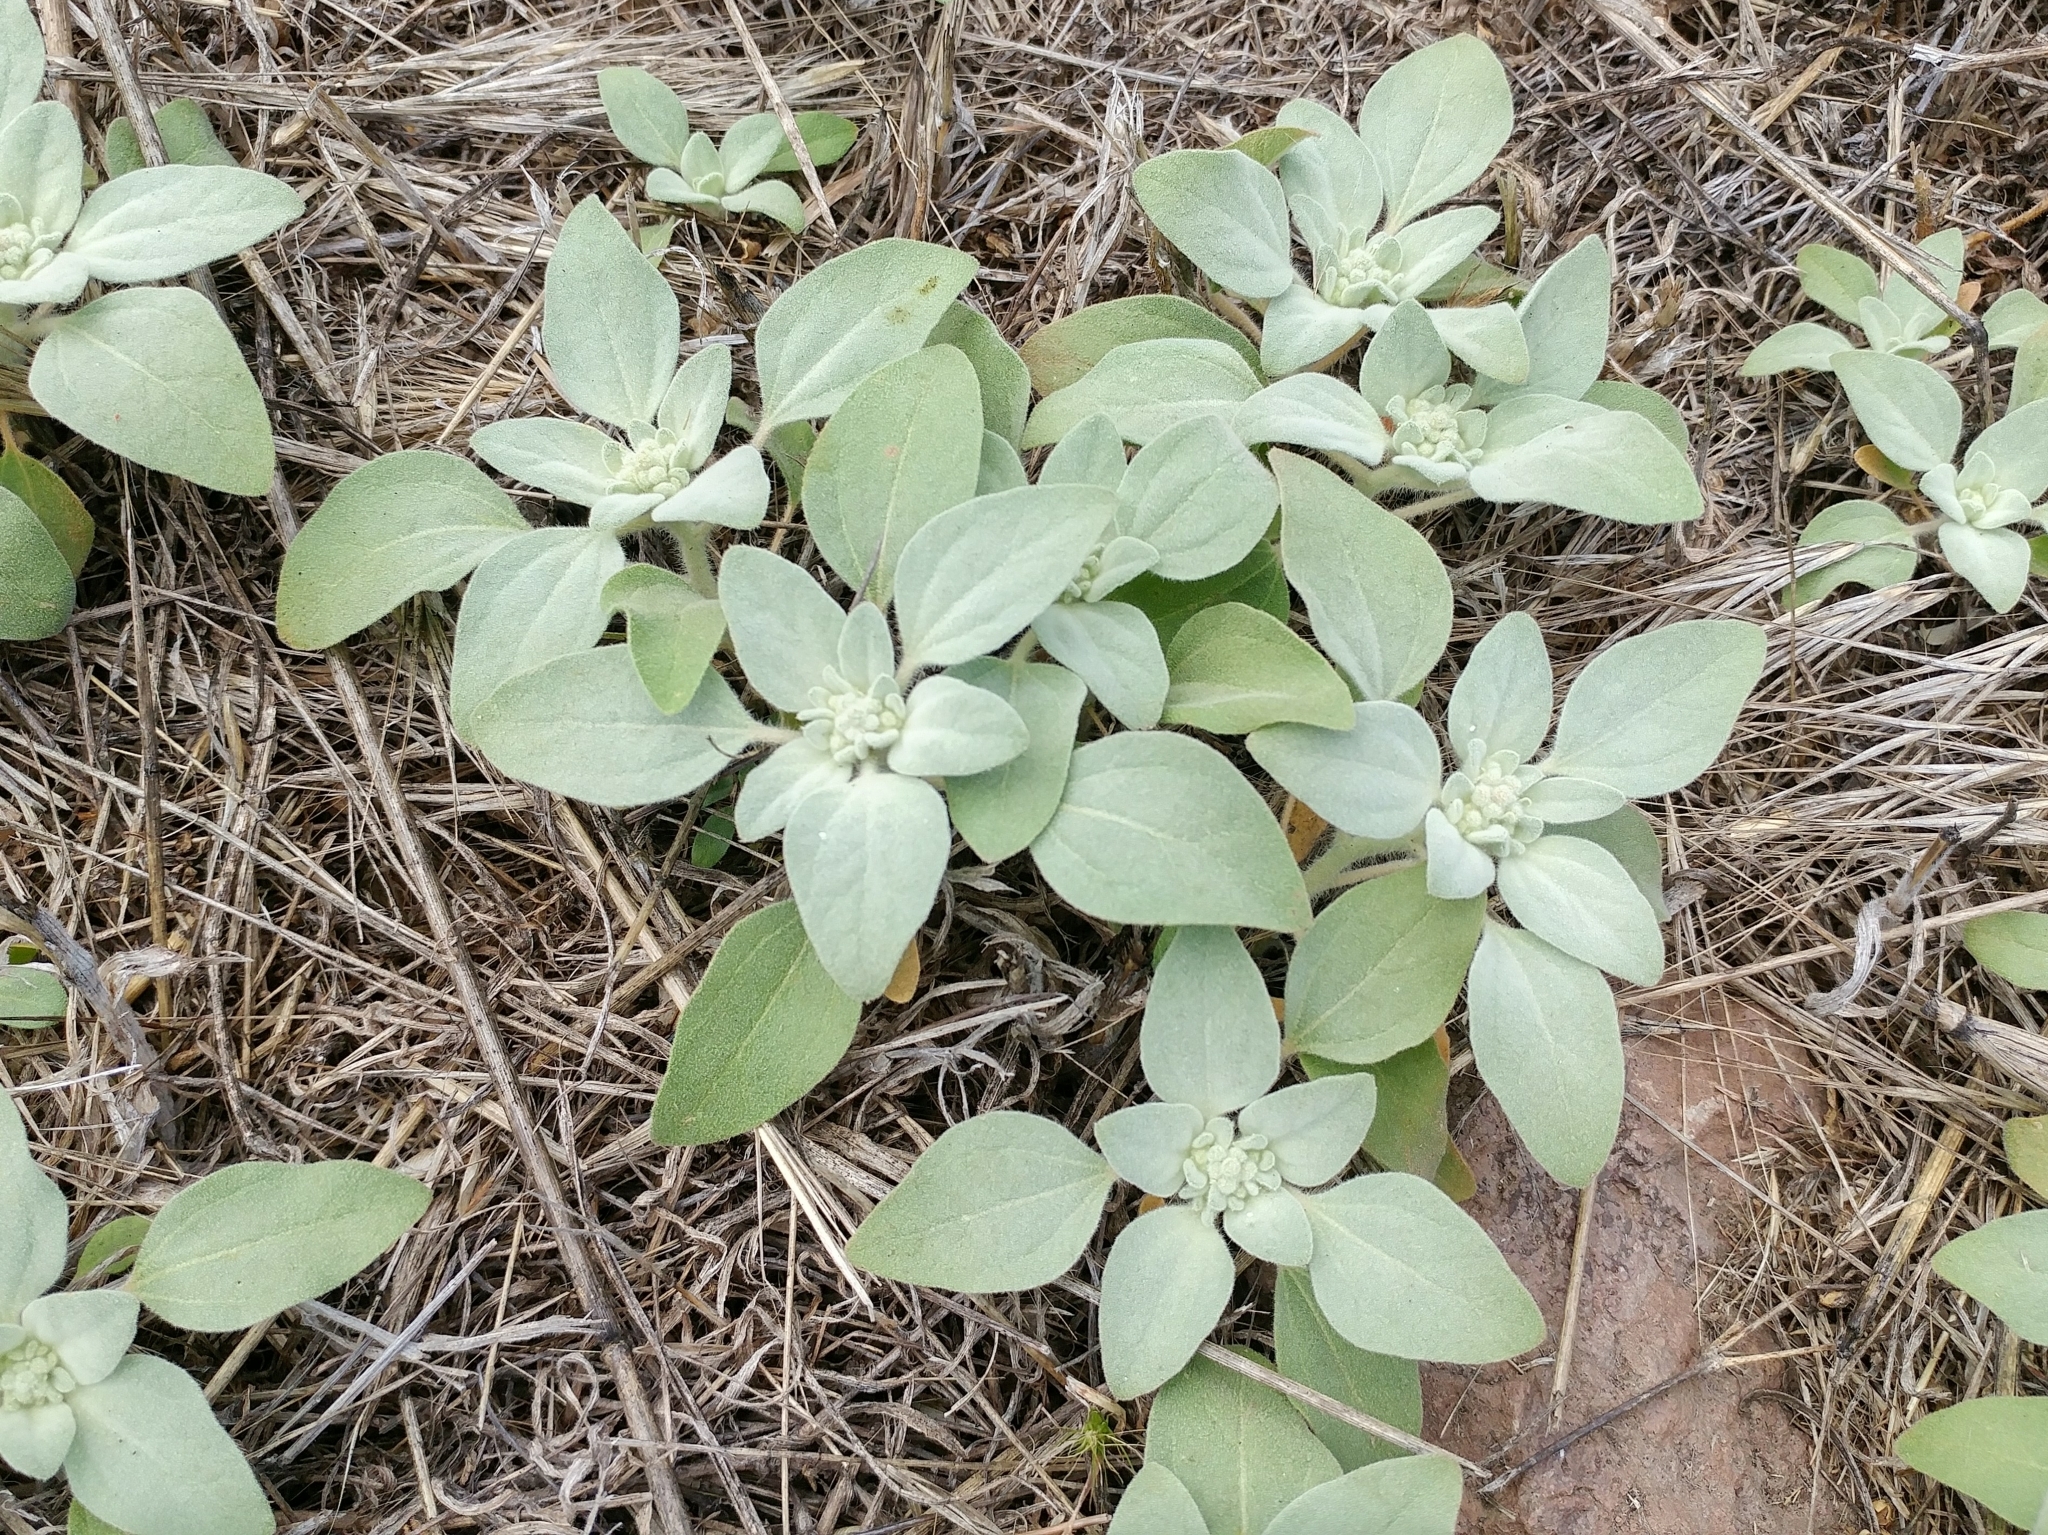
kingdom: Plantae
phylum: Tracheophyta
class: Magnoliopsida
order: Malpighiales
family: Euphorbiaceae
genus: Croton
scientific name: Croton setiger
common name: Dove weed
